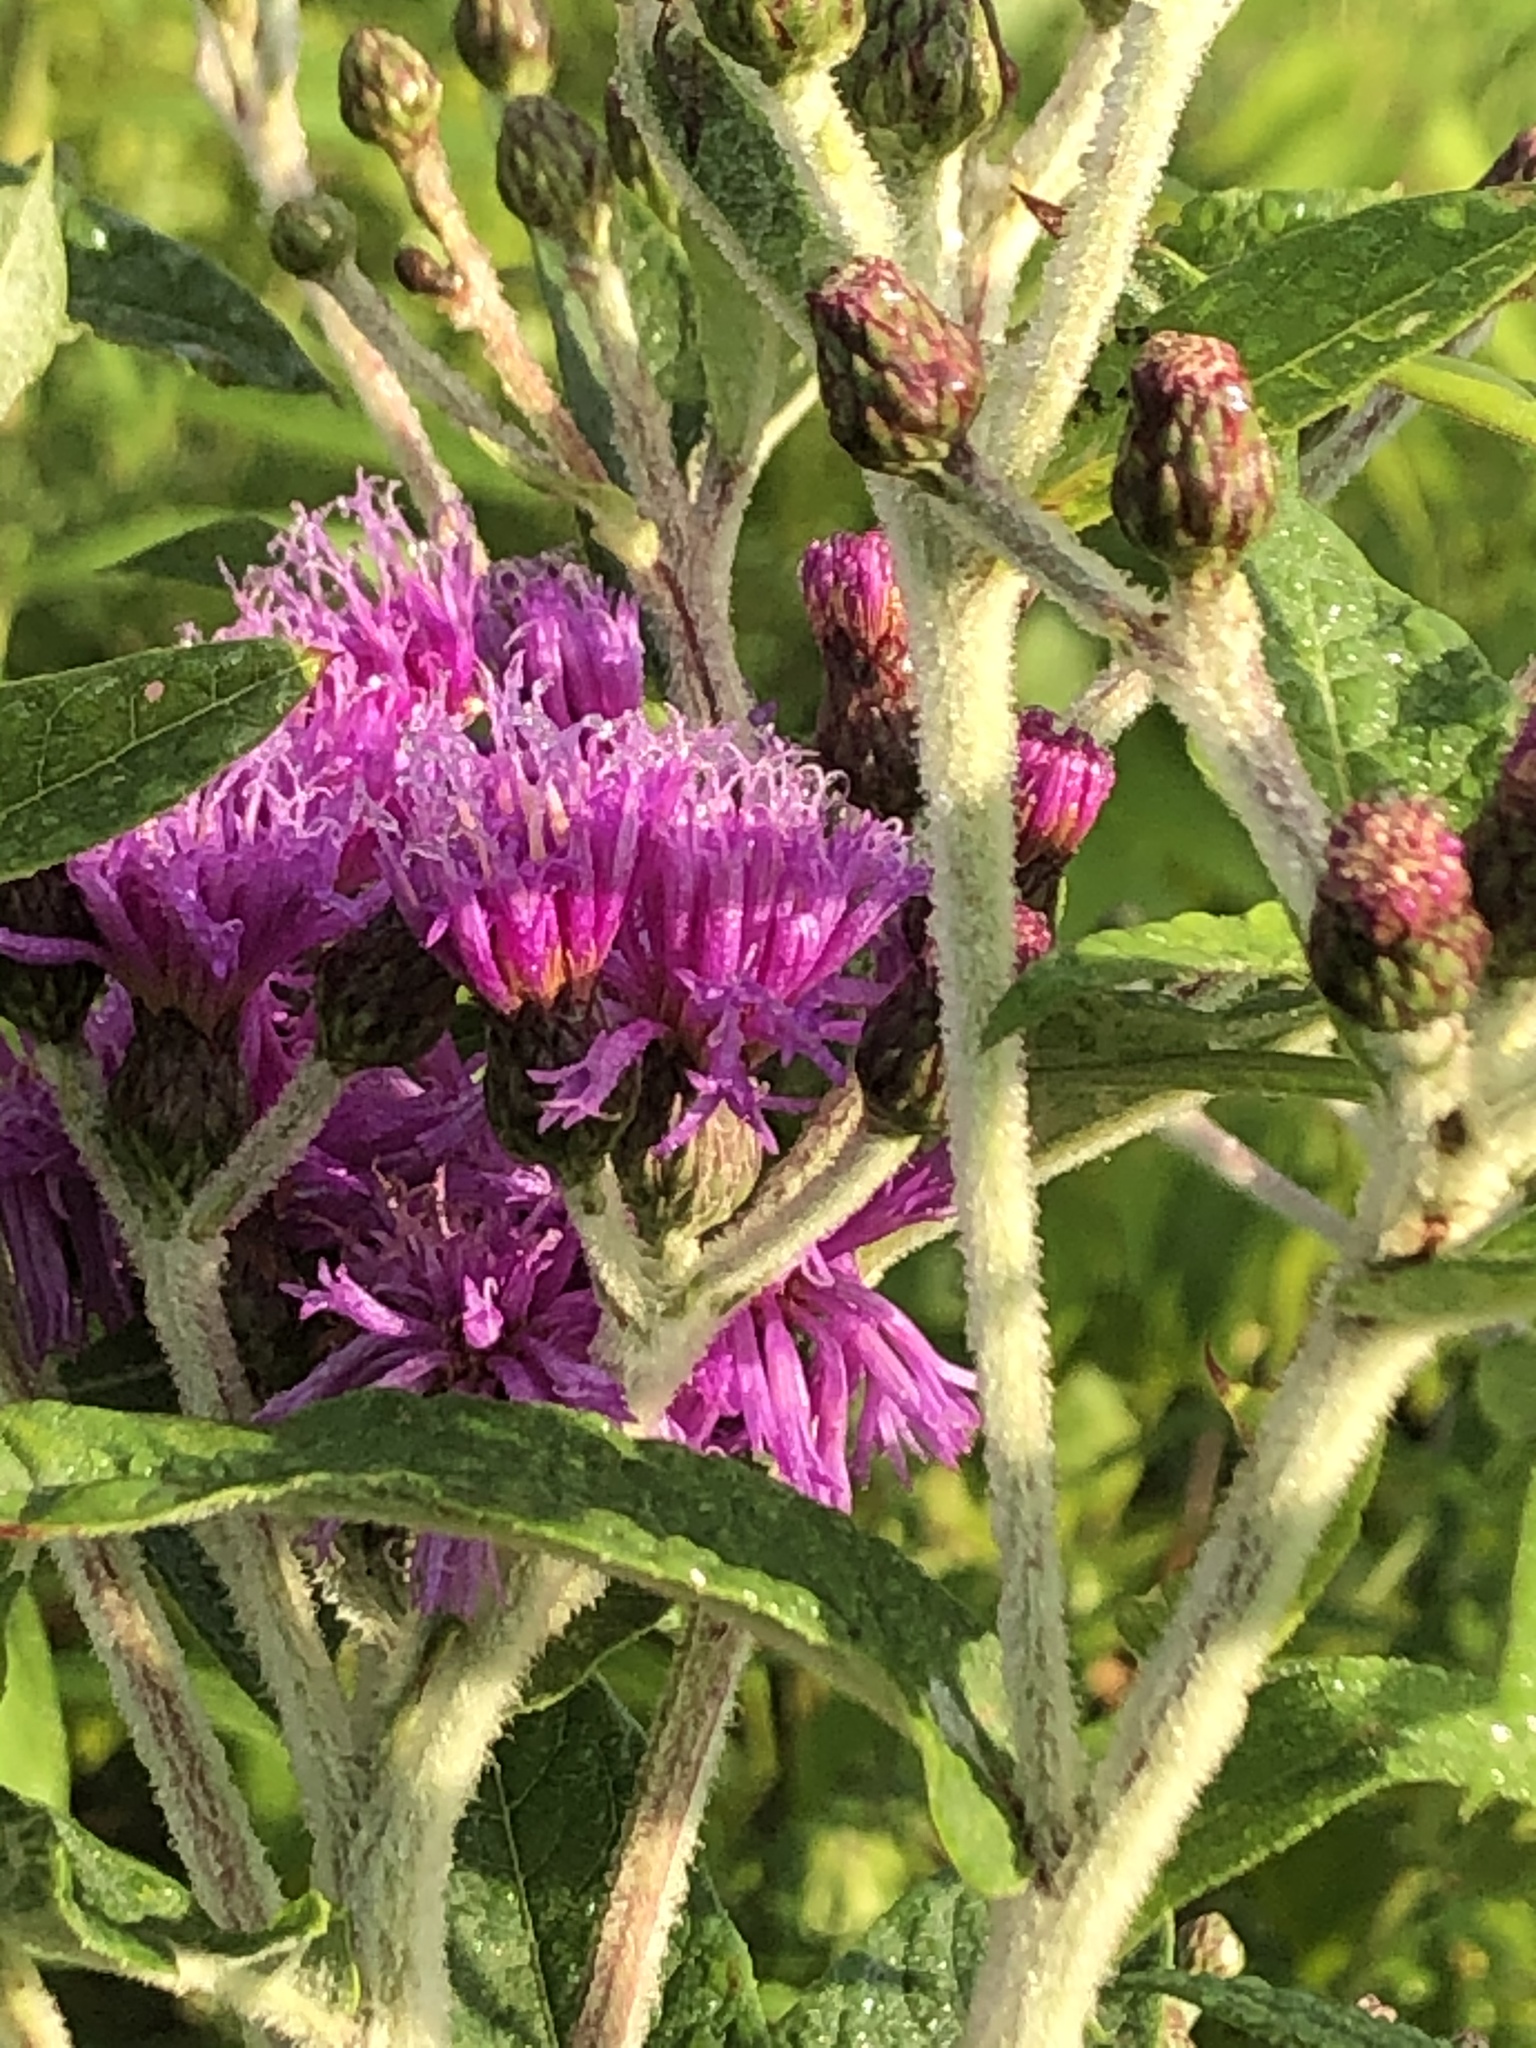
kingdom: Plantae
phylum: Tracheophyta
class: Magnoliopsida
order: Asterales
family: Asteraceae
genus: Vernonia
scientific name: Vernonia missurica
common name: Missouri ironweed
